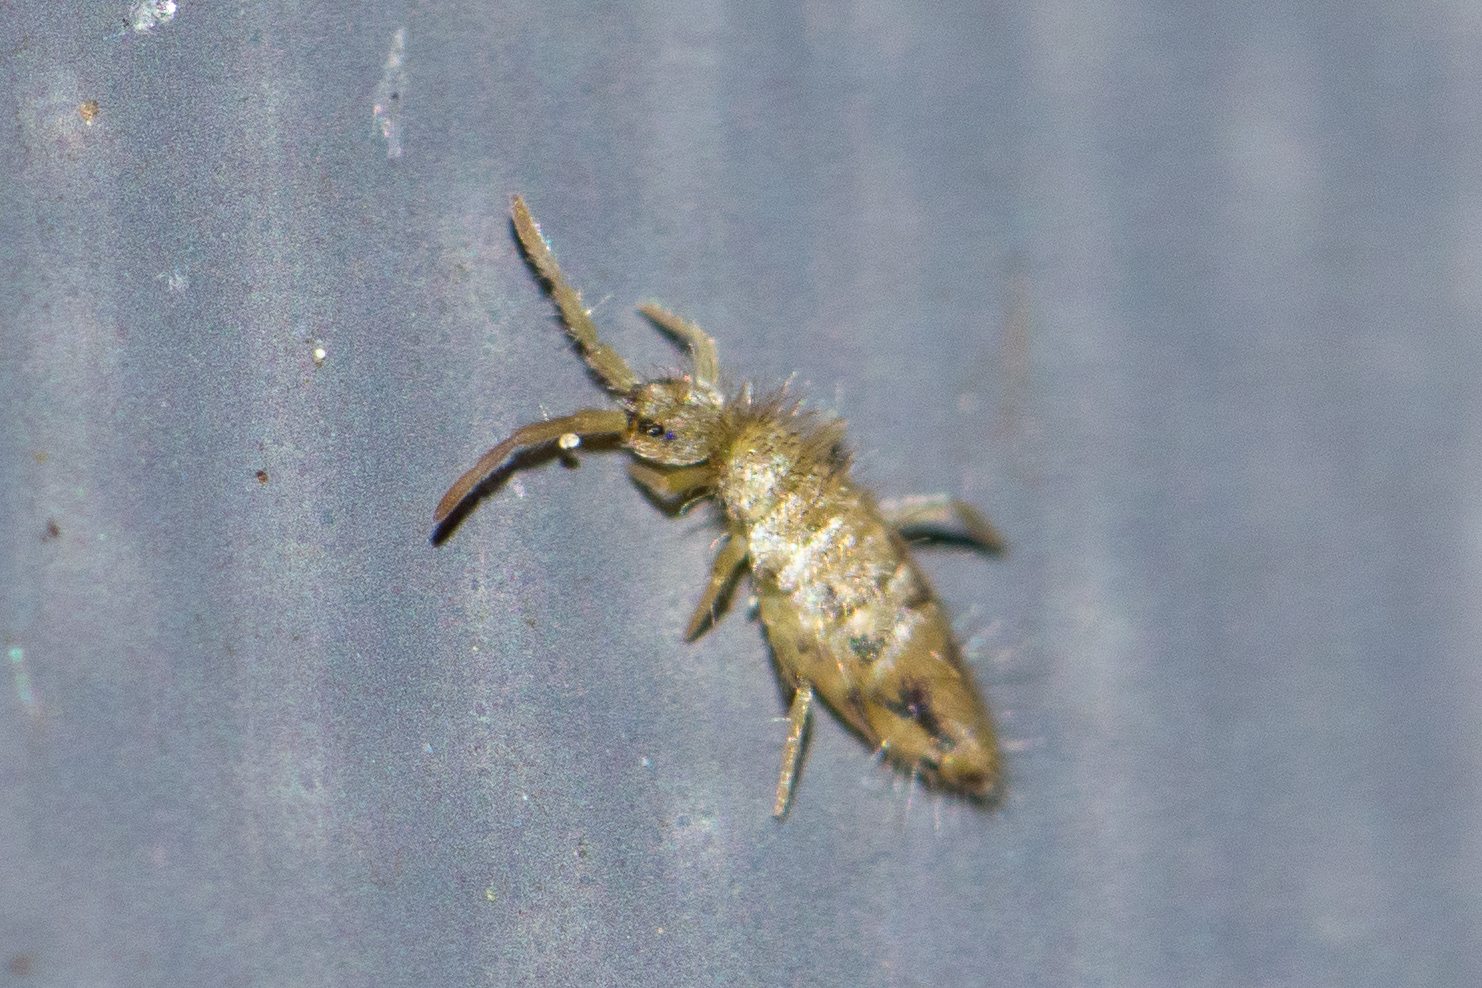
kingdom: Animalia
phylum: Arthropoda
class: Collembola
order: Entomobryomorpha
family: Entomobryidae
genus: Entomobrya
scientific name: Entomobrya nivalis
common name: Cosmopolitan springtail
